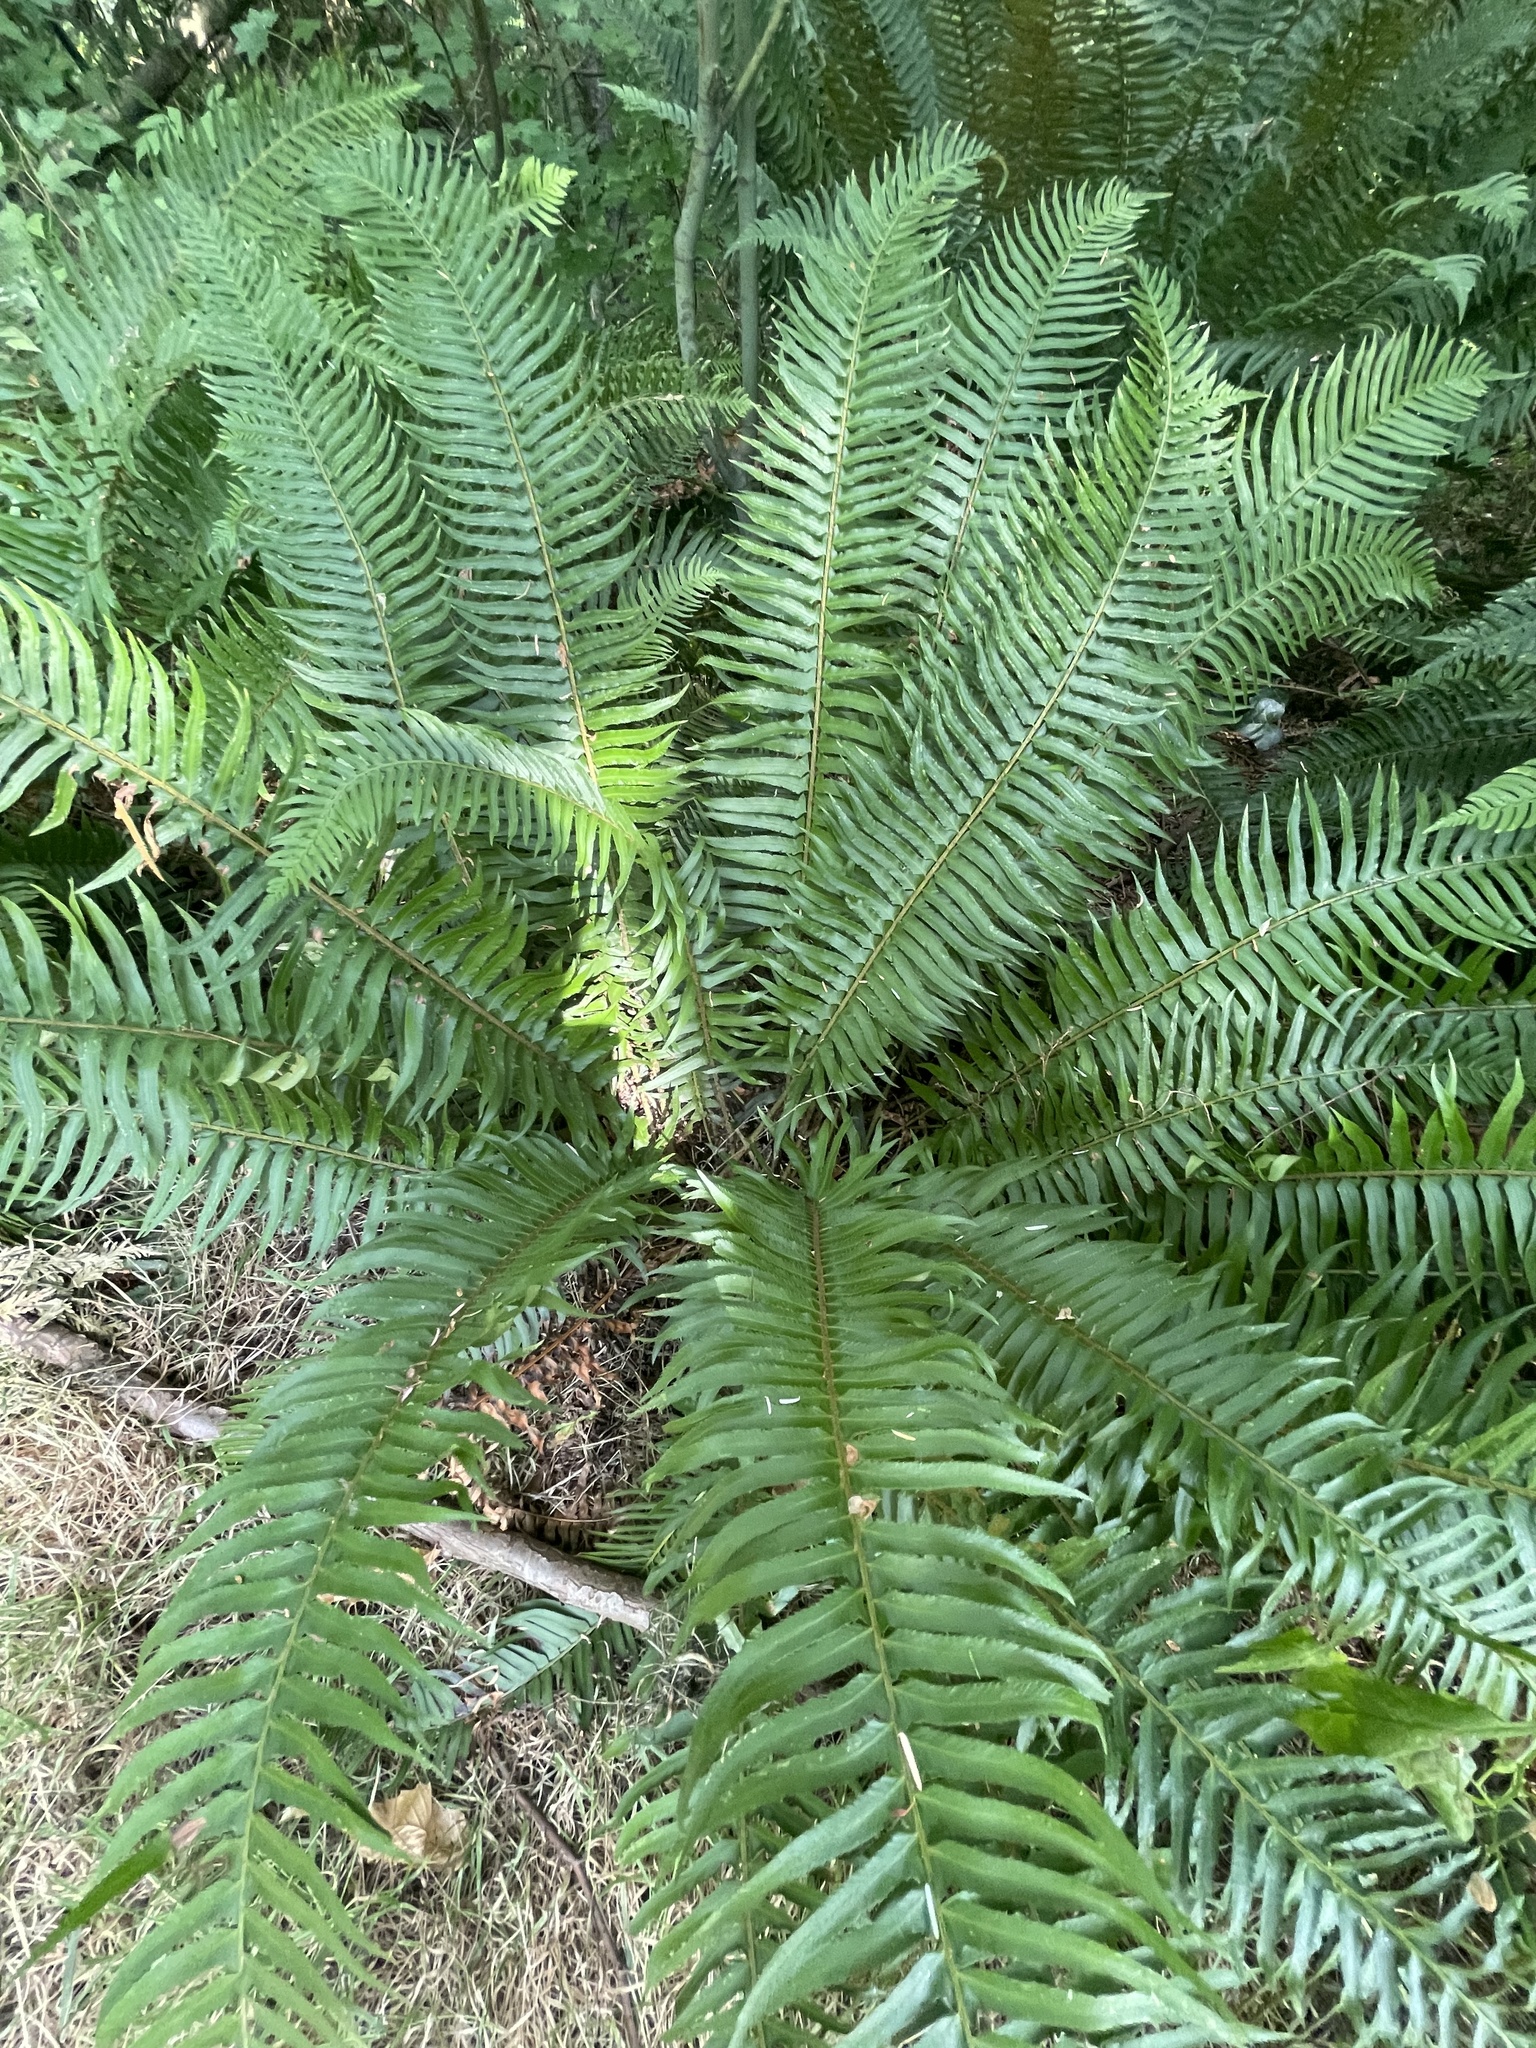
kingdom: Plantae
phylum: Tracheophyta
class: Polypodiopsida
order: Polypodiales
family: Dryopteridaceae
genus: Polystichum
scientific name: Polystichum munitum
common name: Western sword-fern
